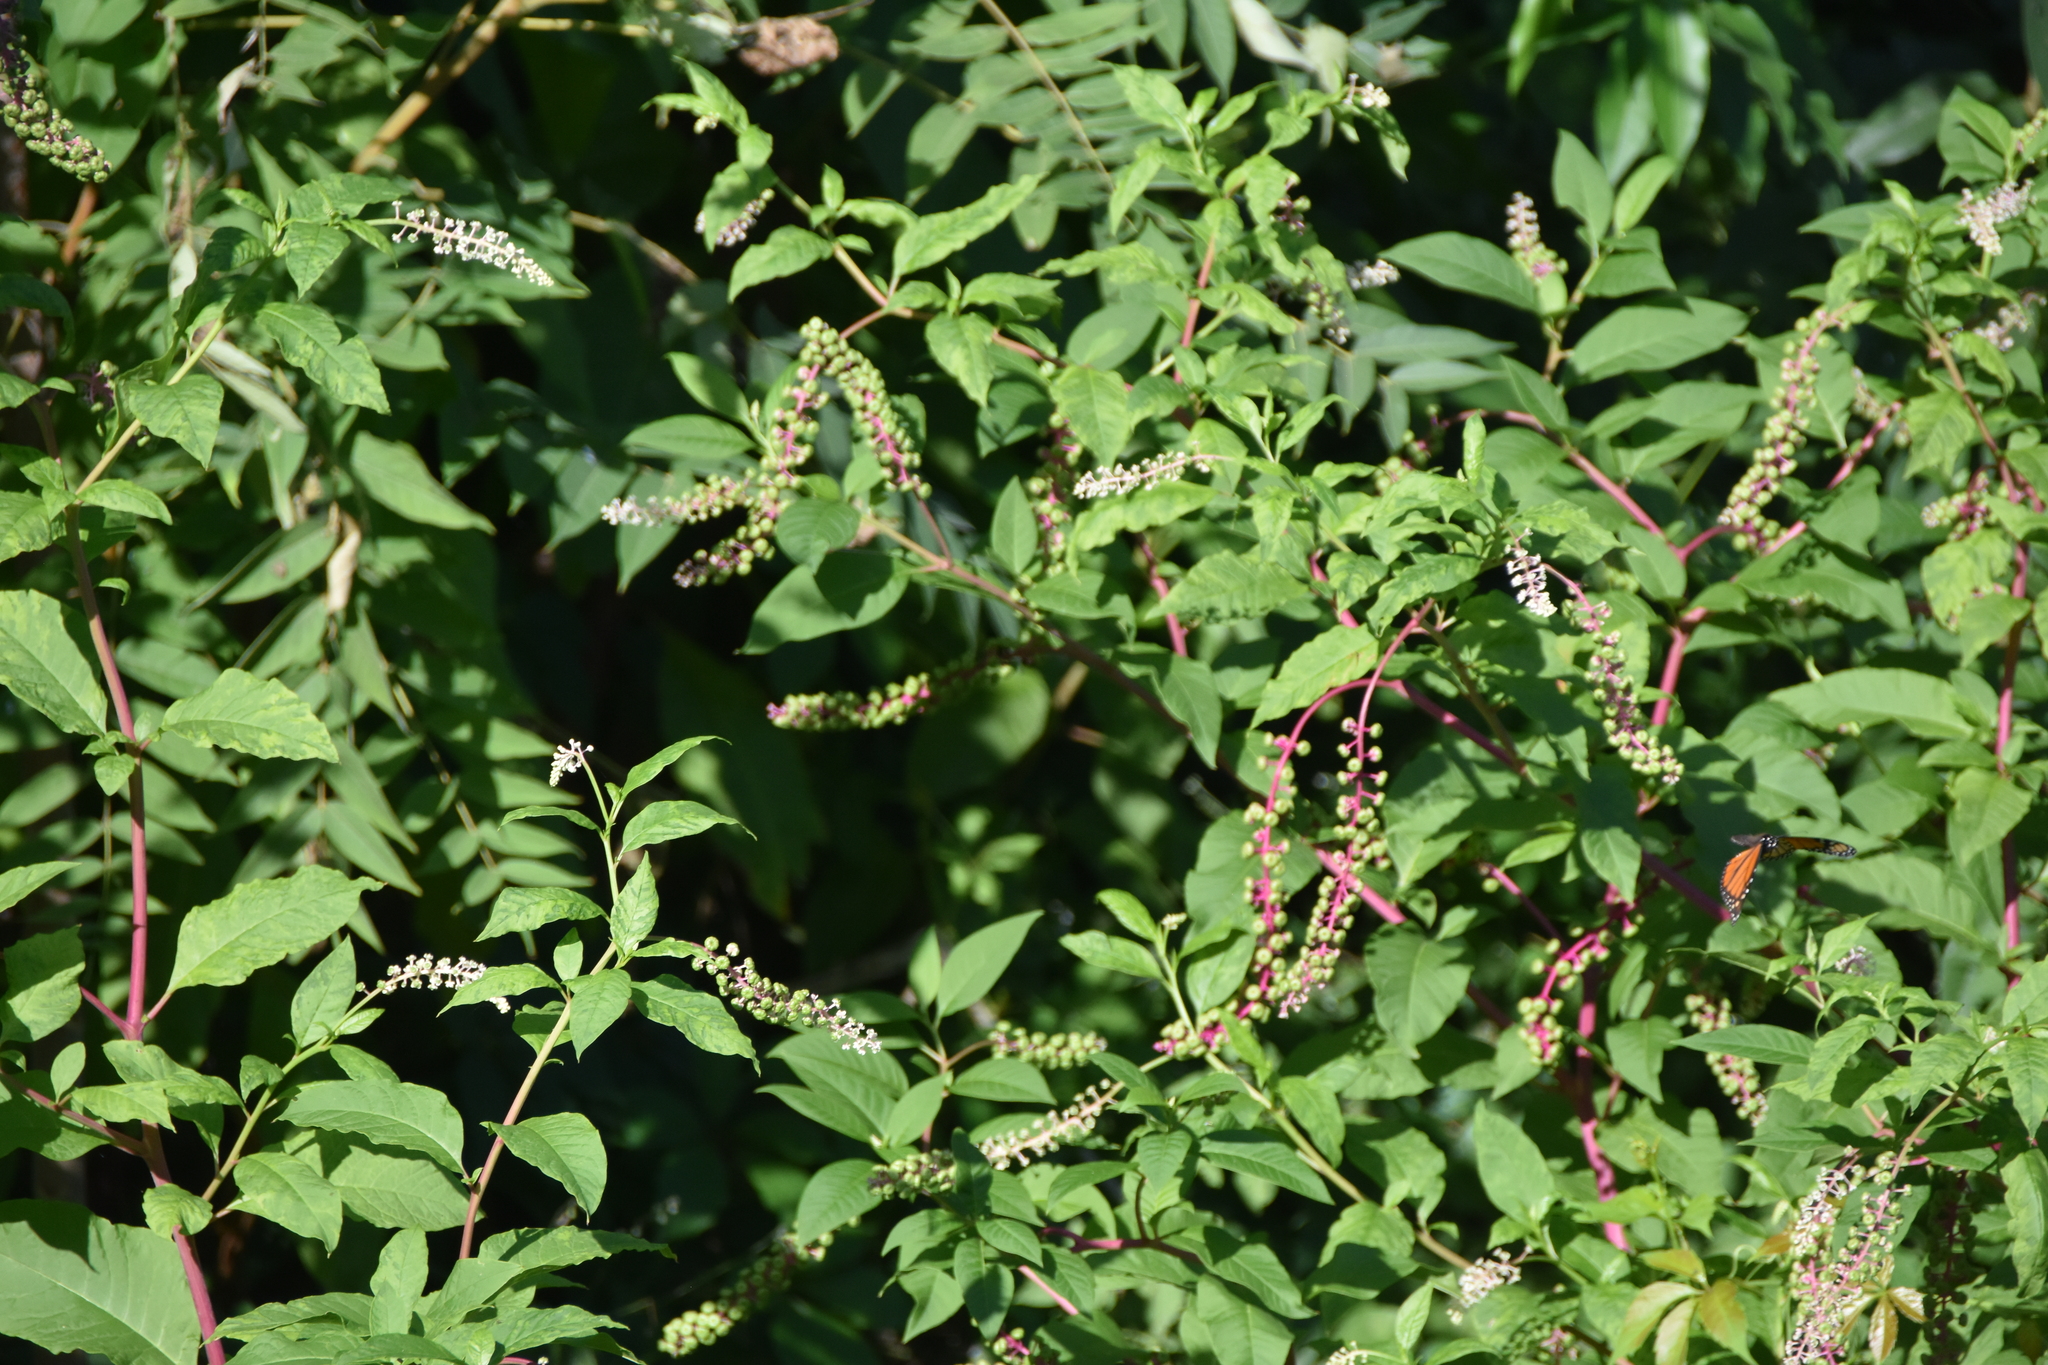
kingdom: Plantae
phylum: Tracheophyta
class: Magnoliopsida
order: Caryophyllales
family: Phytolaccaceae
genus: Phytolacca
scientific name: Phytolacca americana
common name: American pokeweed
